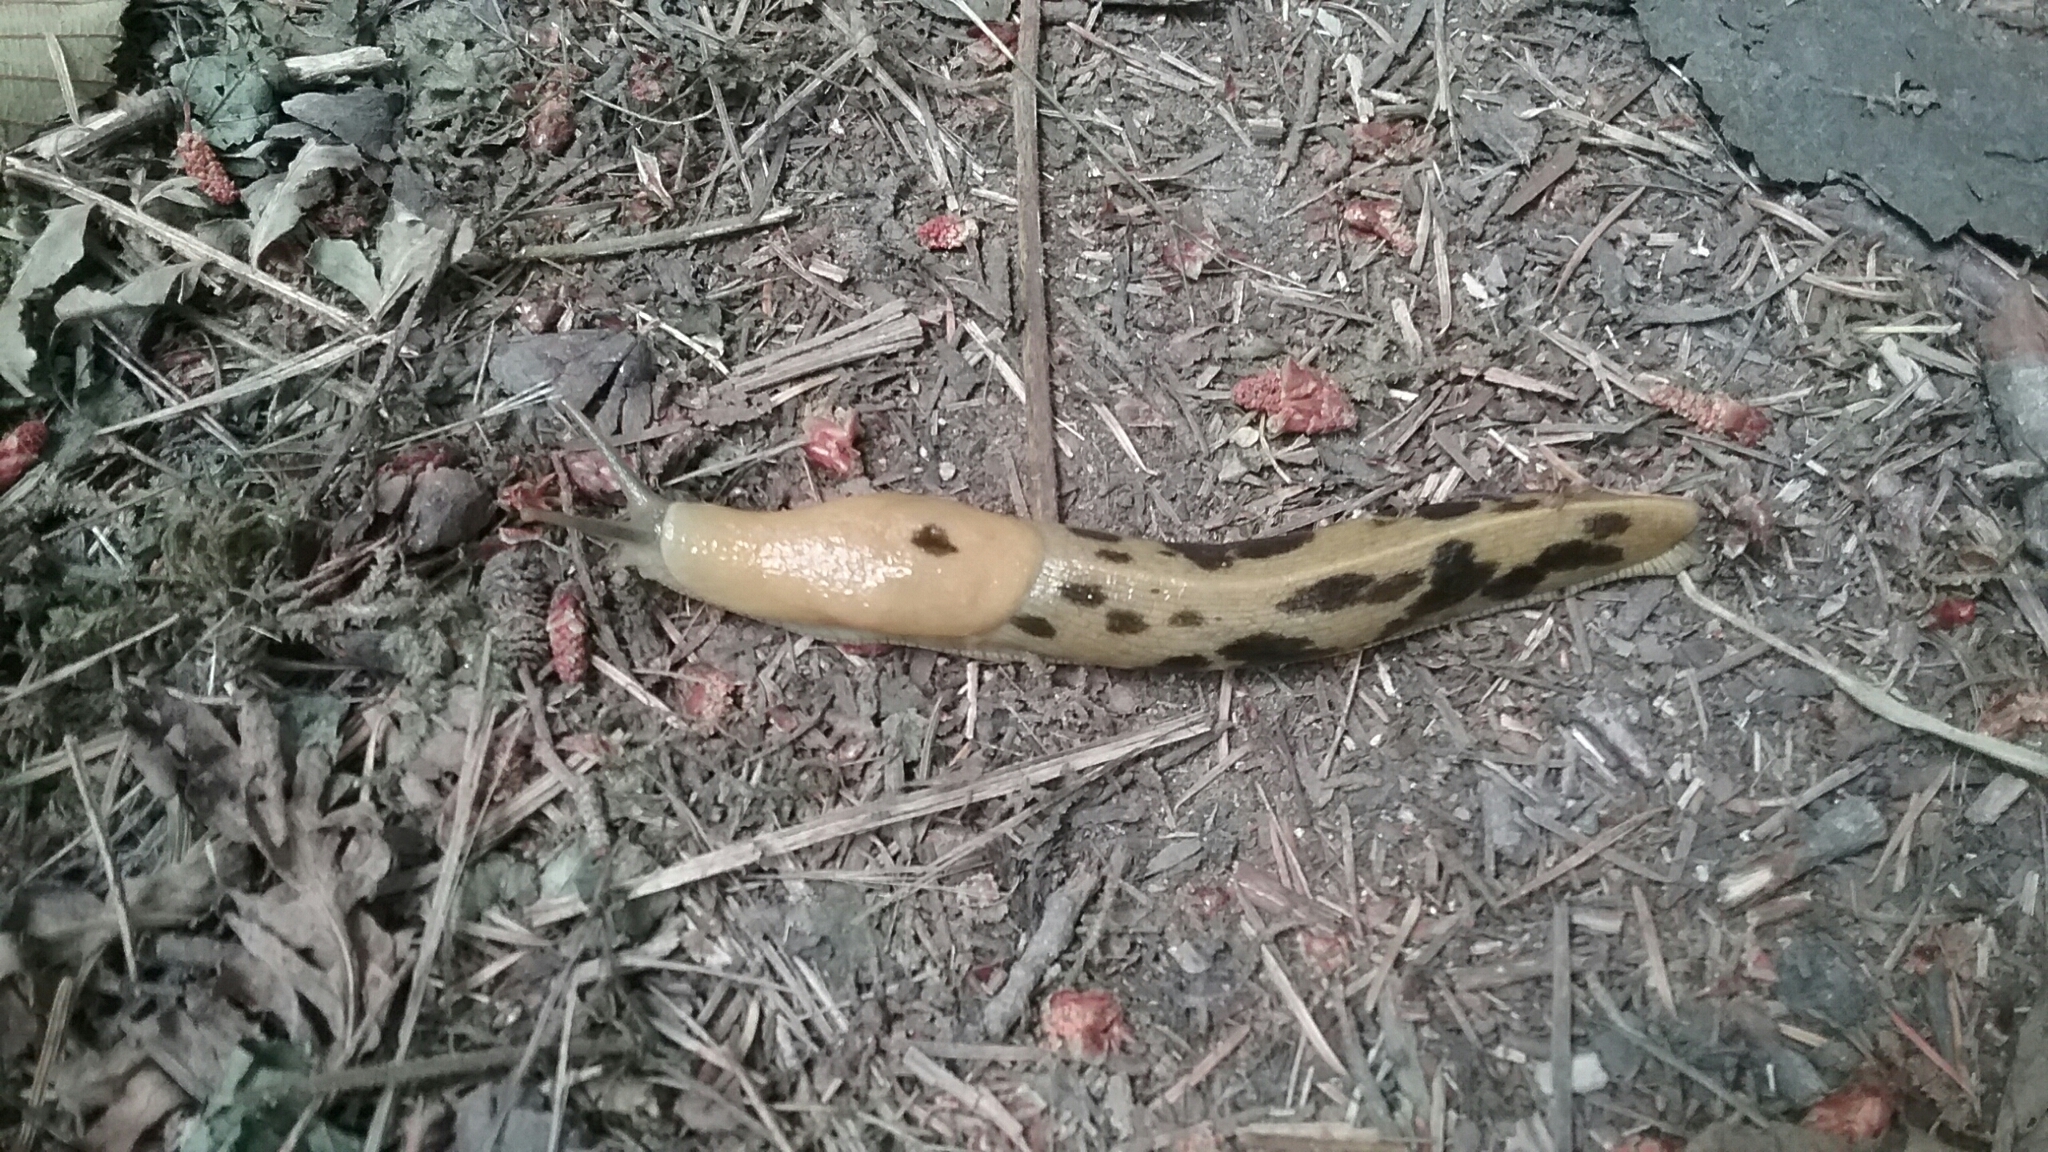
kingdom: Animalia
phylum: Mollusca
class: Gastropoda
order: Stylommatophora
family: Ariolimacidae
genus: Ariolimax
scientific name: Ariolimax columbianus
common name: Pacific banana slug
